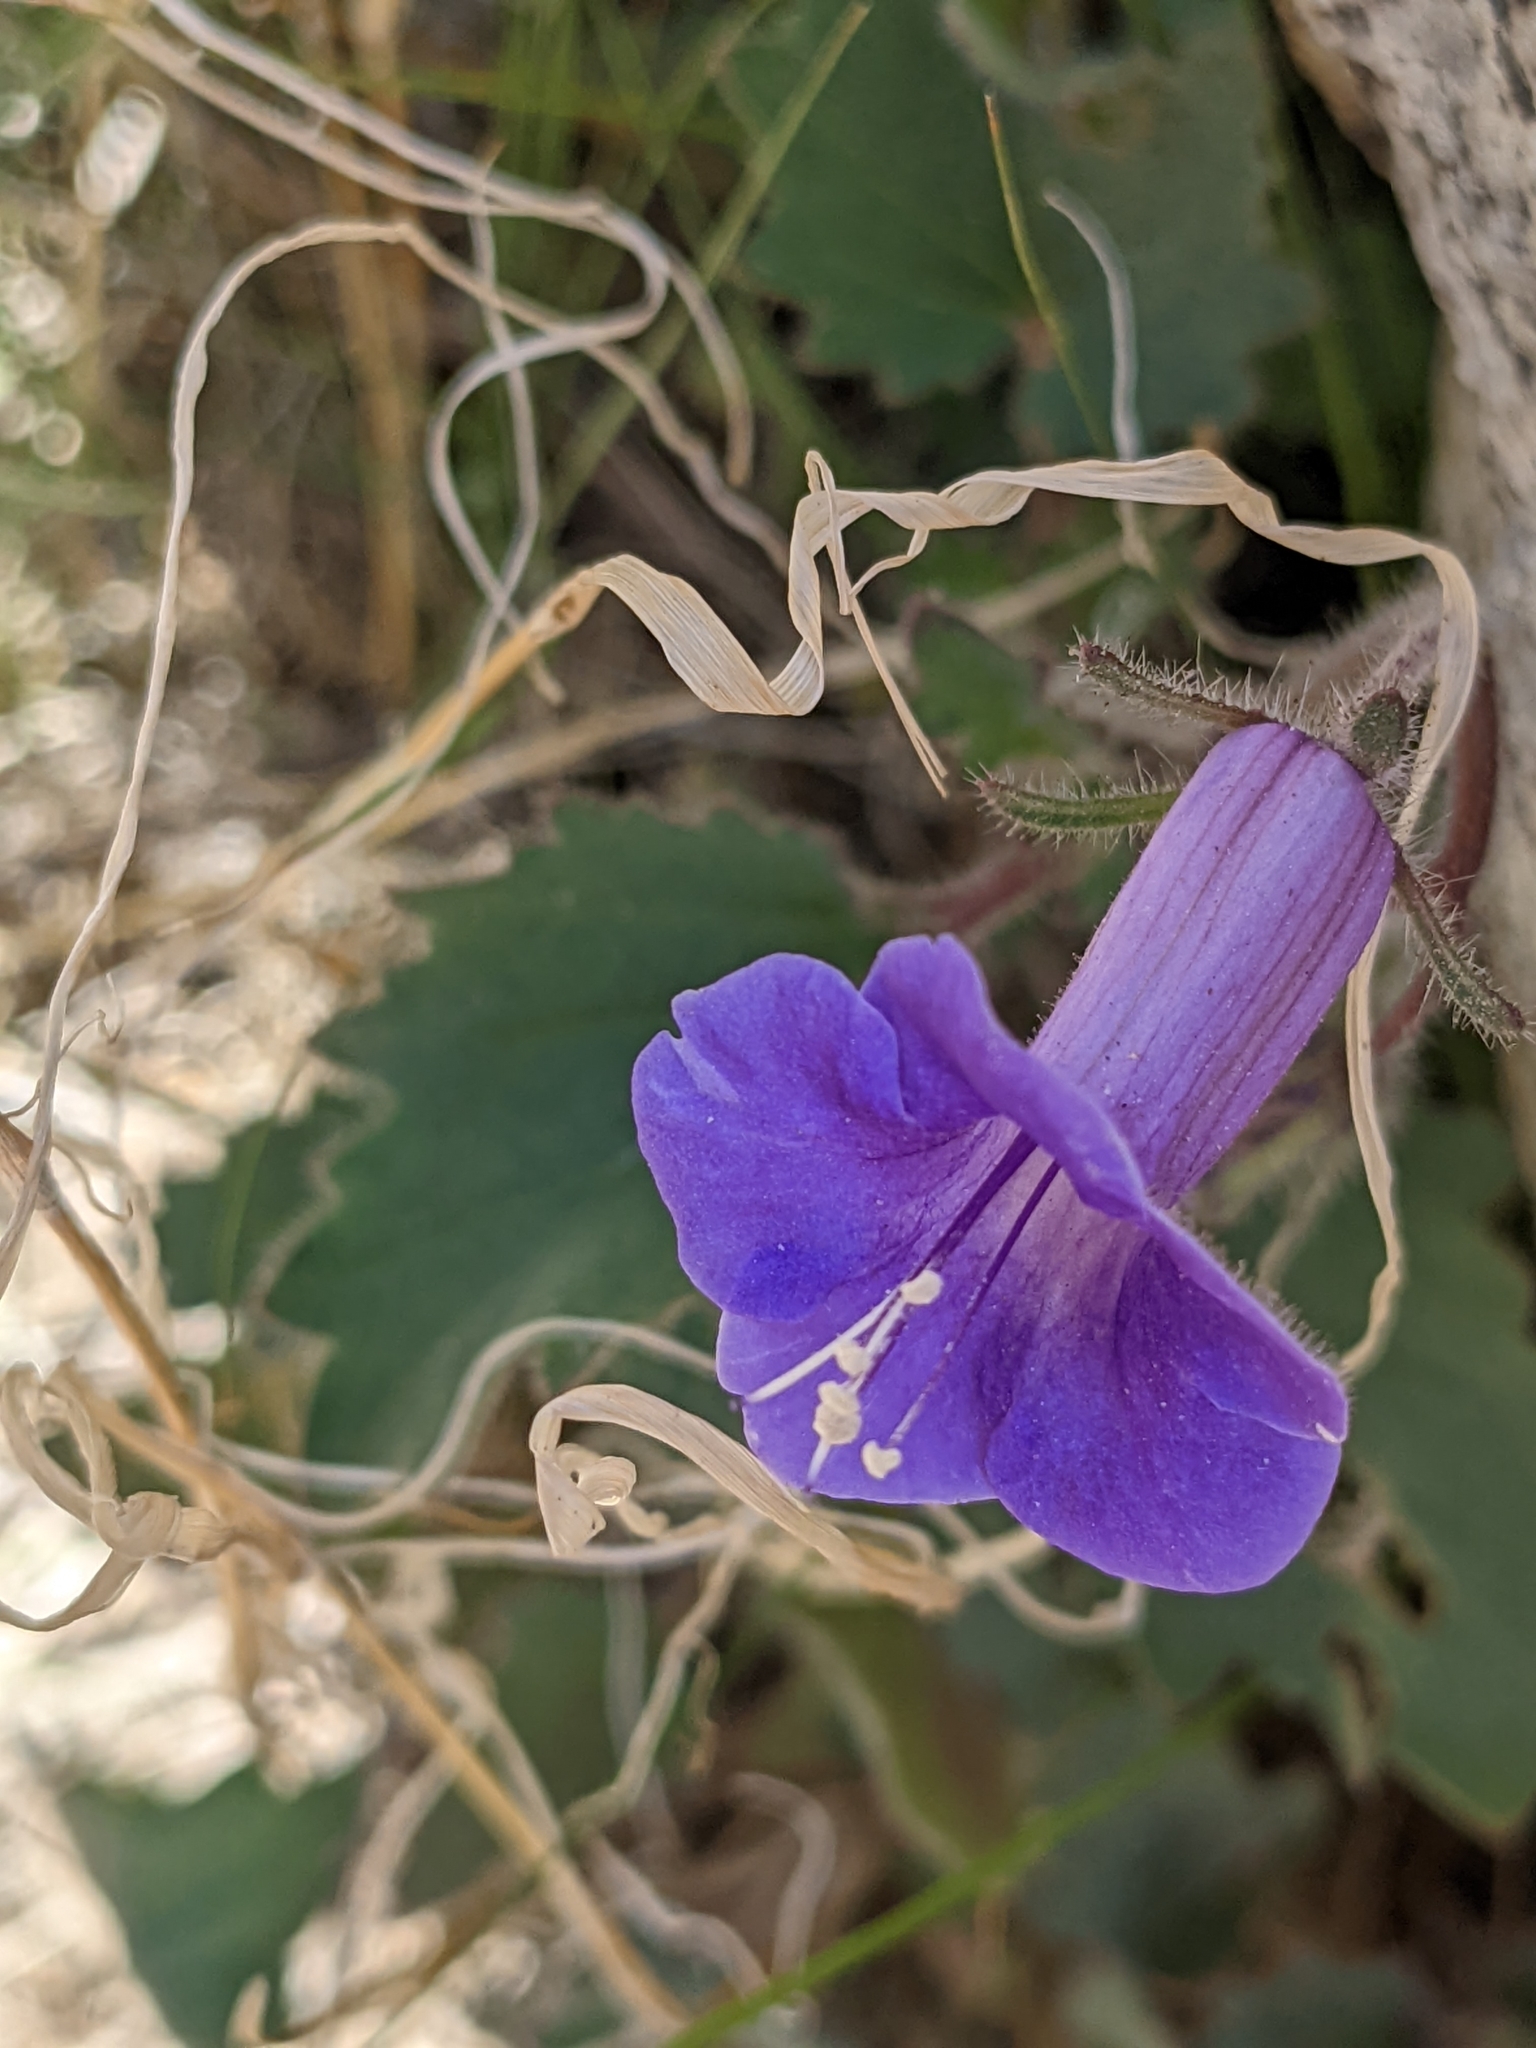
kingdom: Plantae
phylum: Tracheophyta
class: Magnoliopsida
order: Boraginales
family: Hydrophyllaceae
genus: Phacelia
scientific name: Phacelia minor
